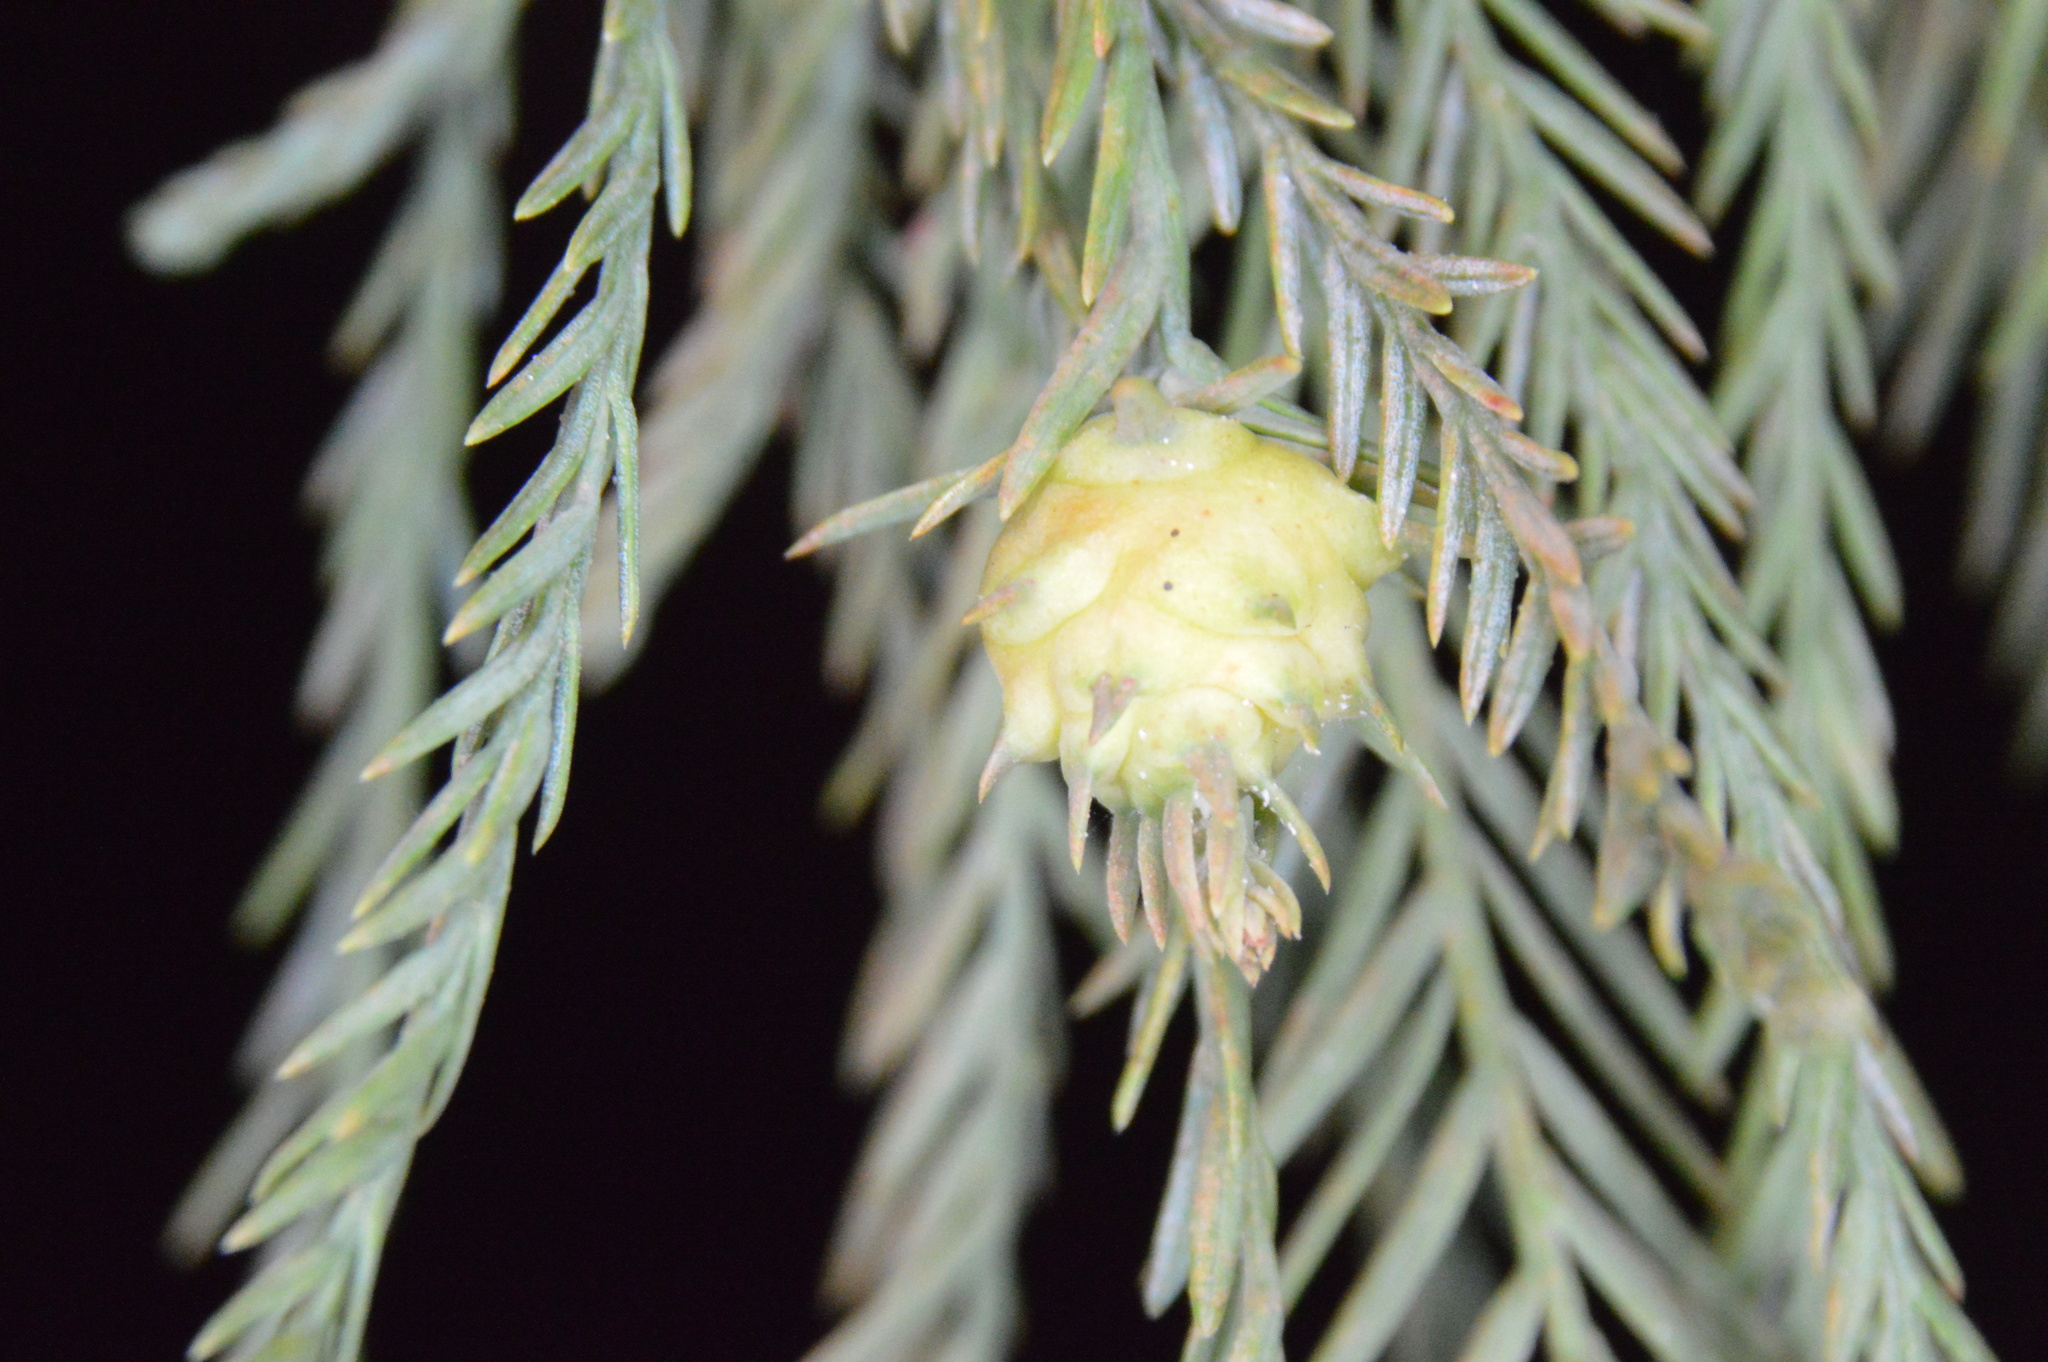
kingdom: Animalia
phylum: Arthropoda
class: Insecta
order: Diptera
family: Cecidomyiidae
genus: Taxodiomyia
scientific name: Taxodiomyia cupressiananassa
